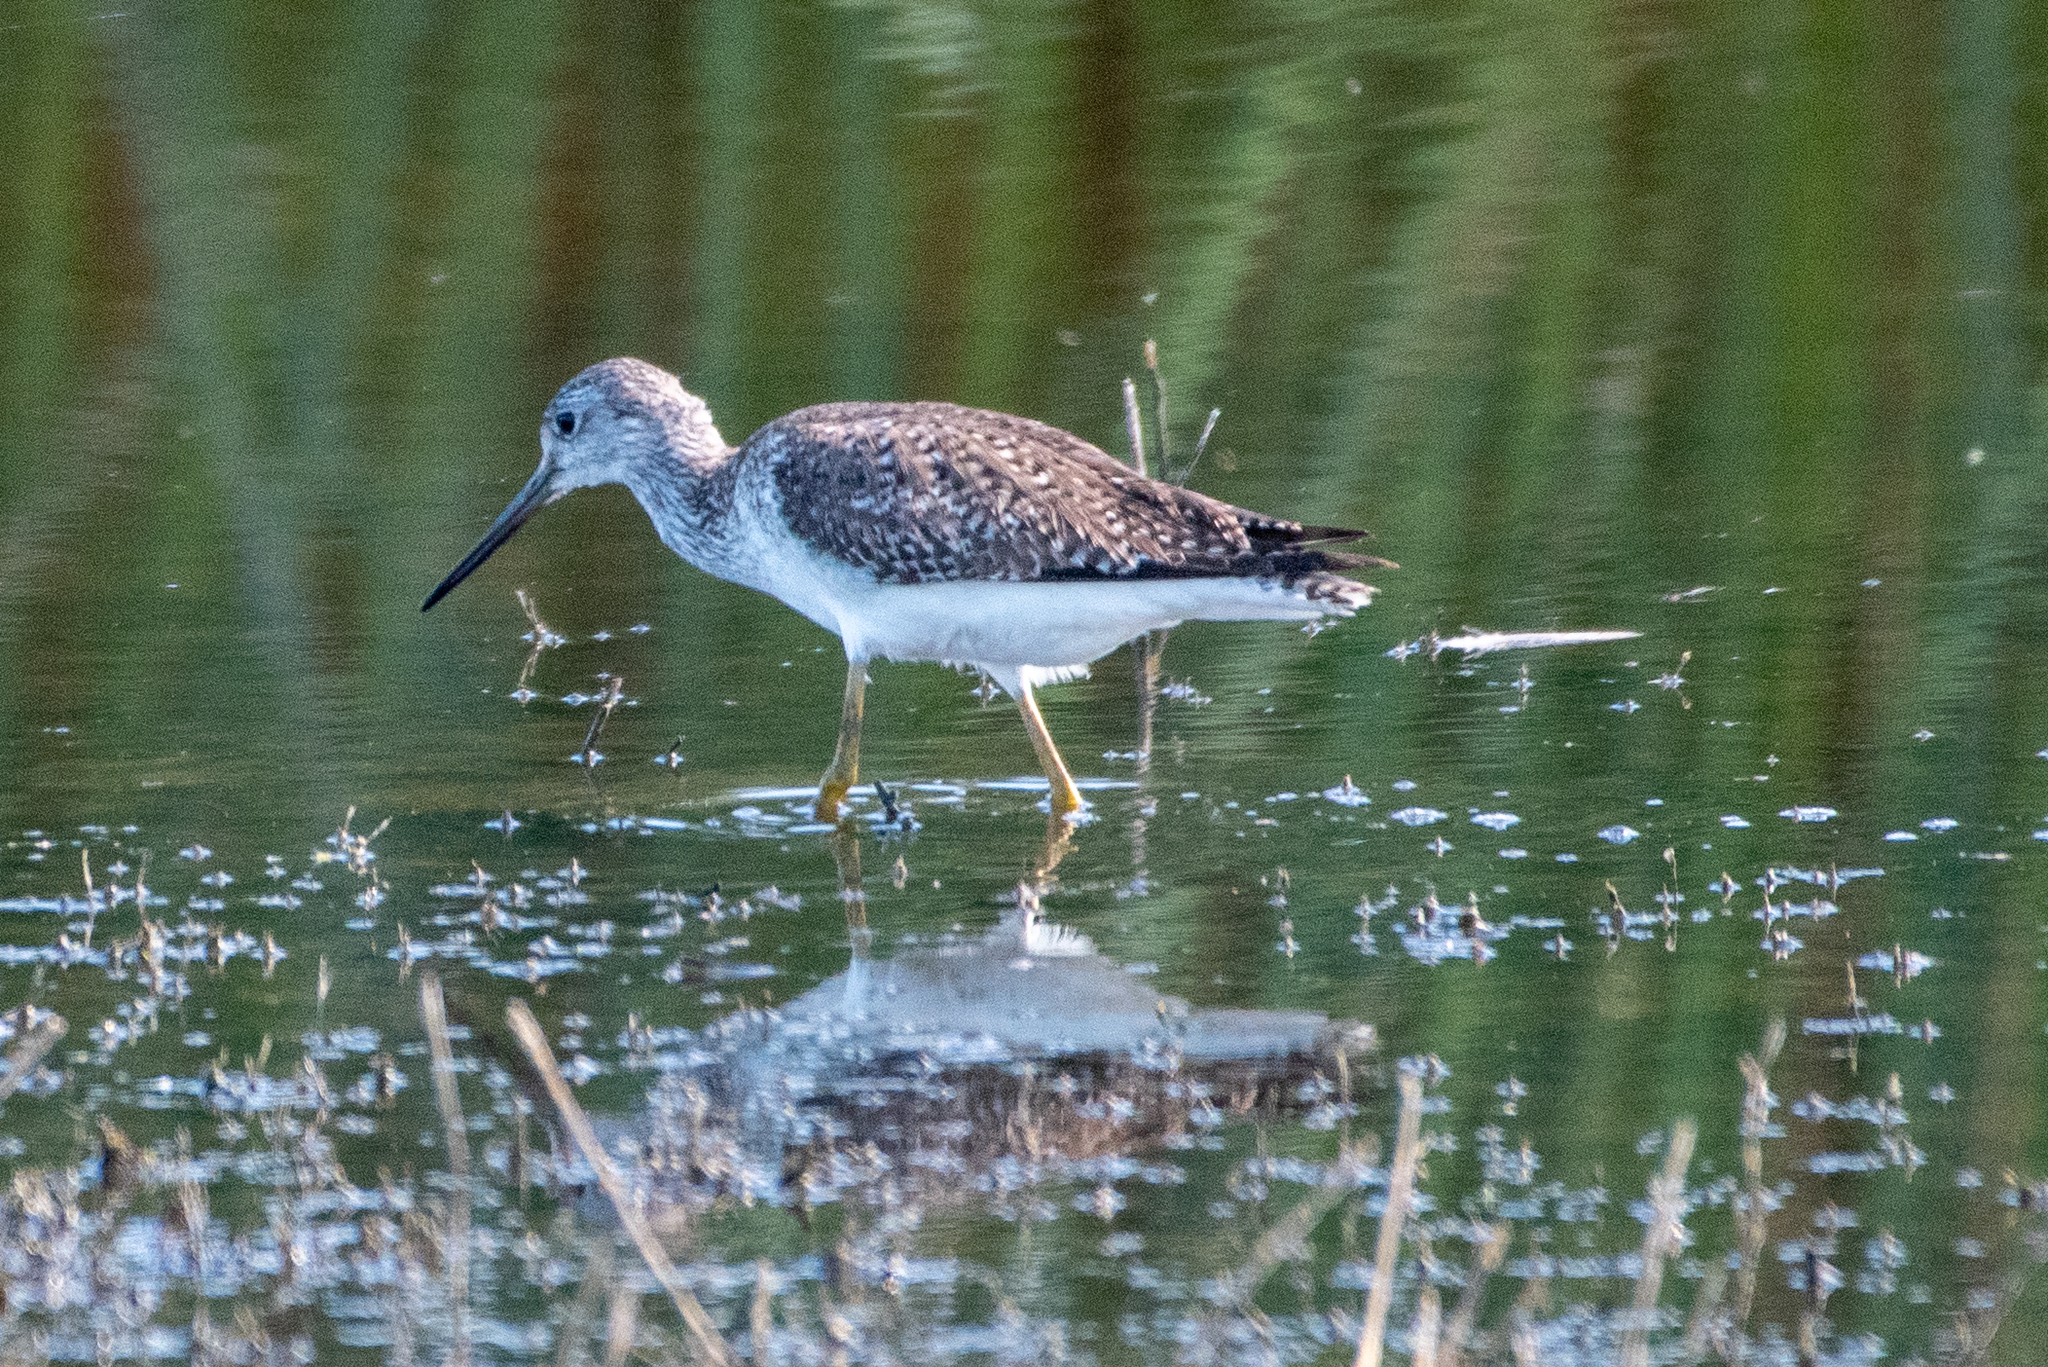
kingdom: Animalia
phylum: Chordata
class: Aves
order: Charadriiformes
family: Scolopacidae
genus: Tringa
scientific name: Tringa melanoleuca
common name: Greater yellowlegs
